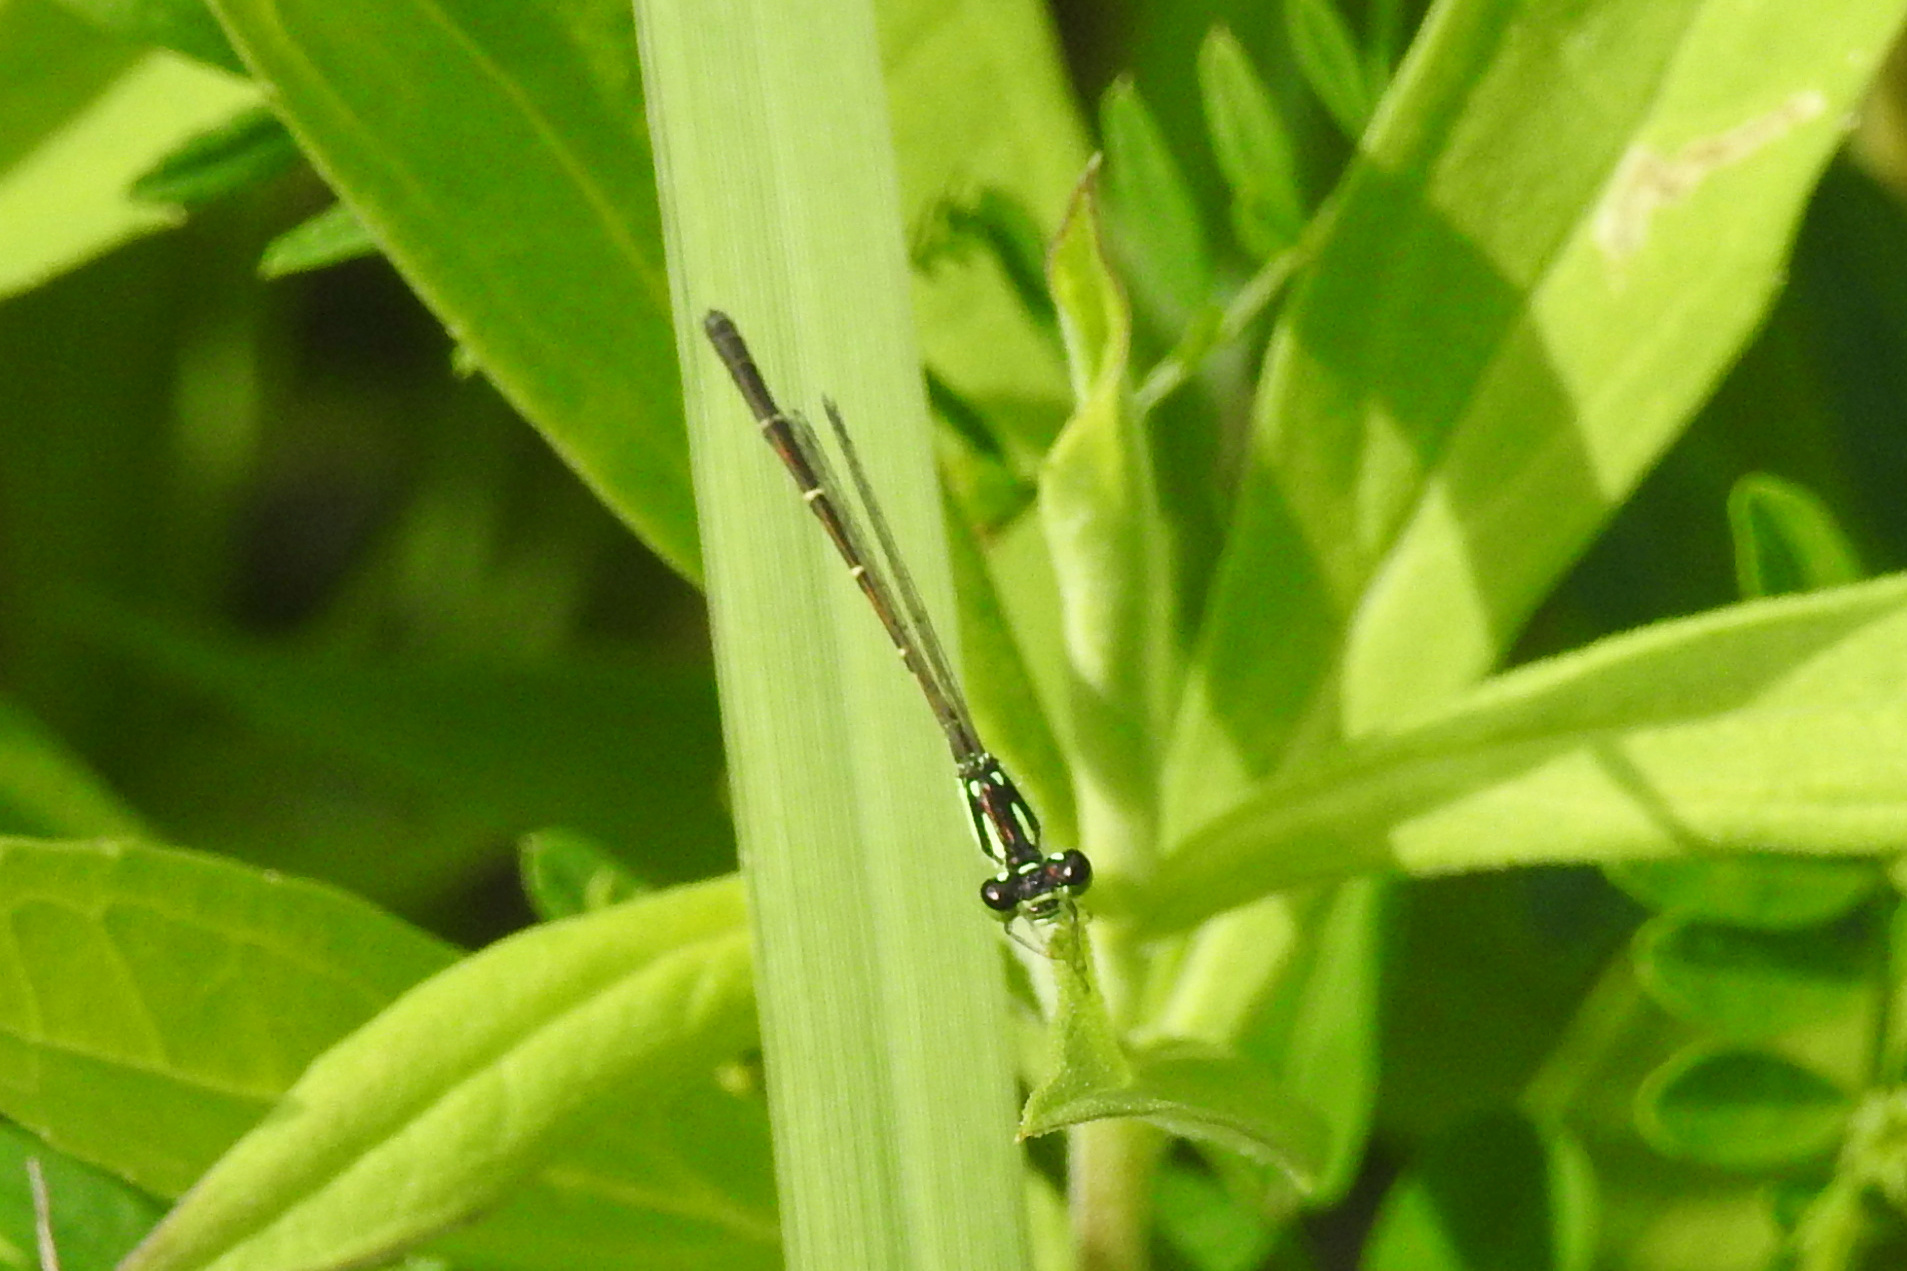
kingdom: Animalia
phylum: Arthropoda
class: Insecta
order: Odonata
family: Coenagrionidae
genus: Ischnura
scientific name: Ischnura posita
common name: Fragile forktail
